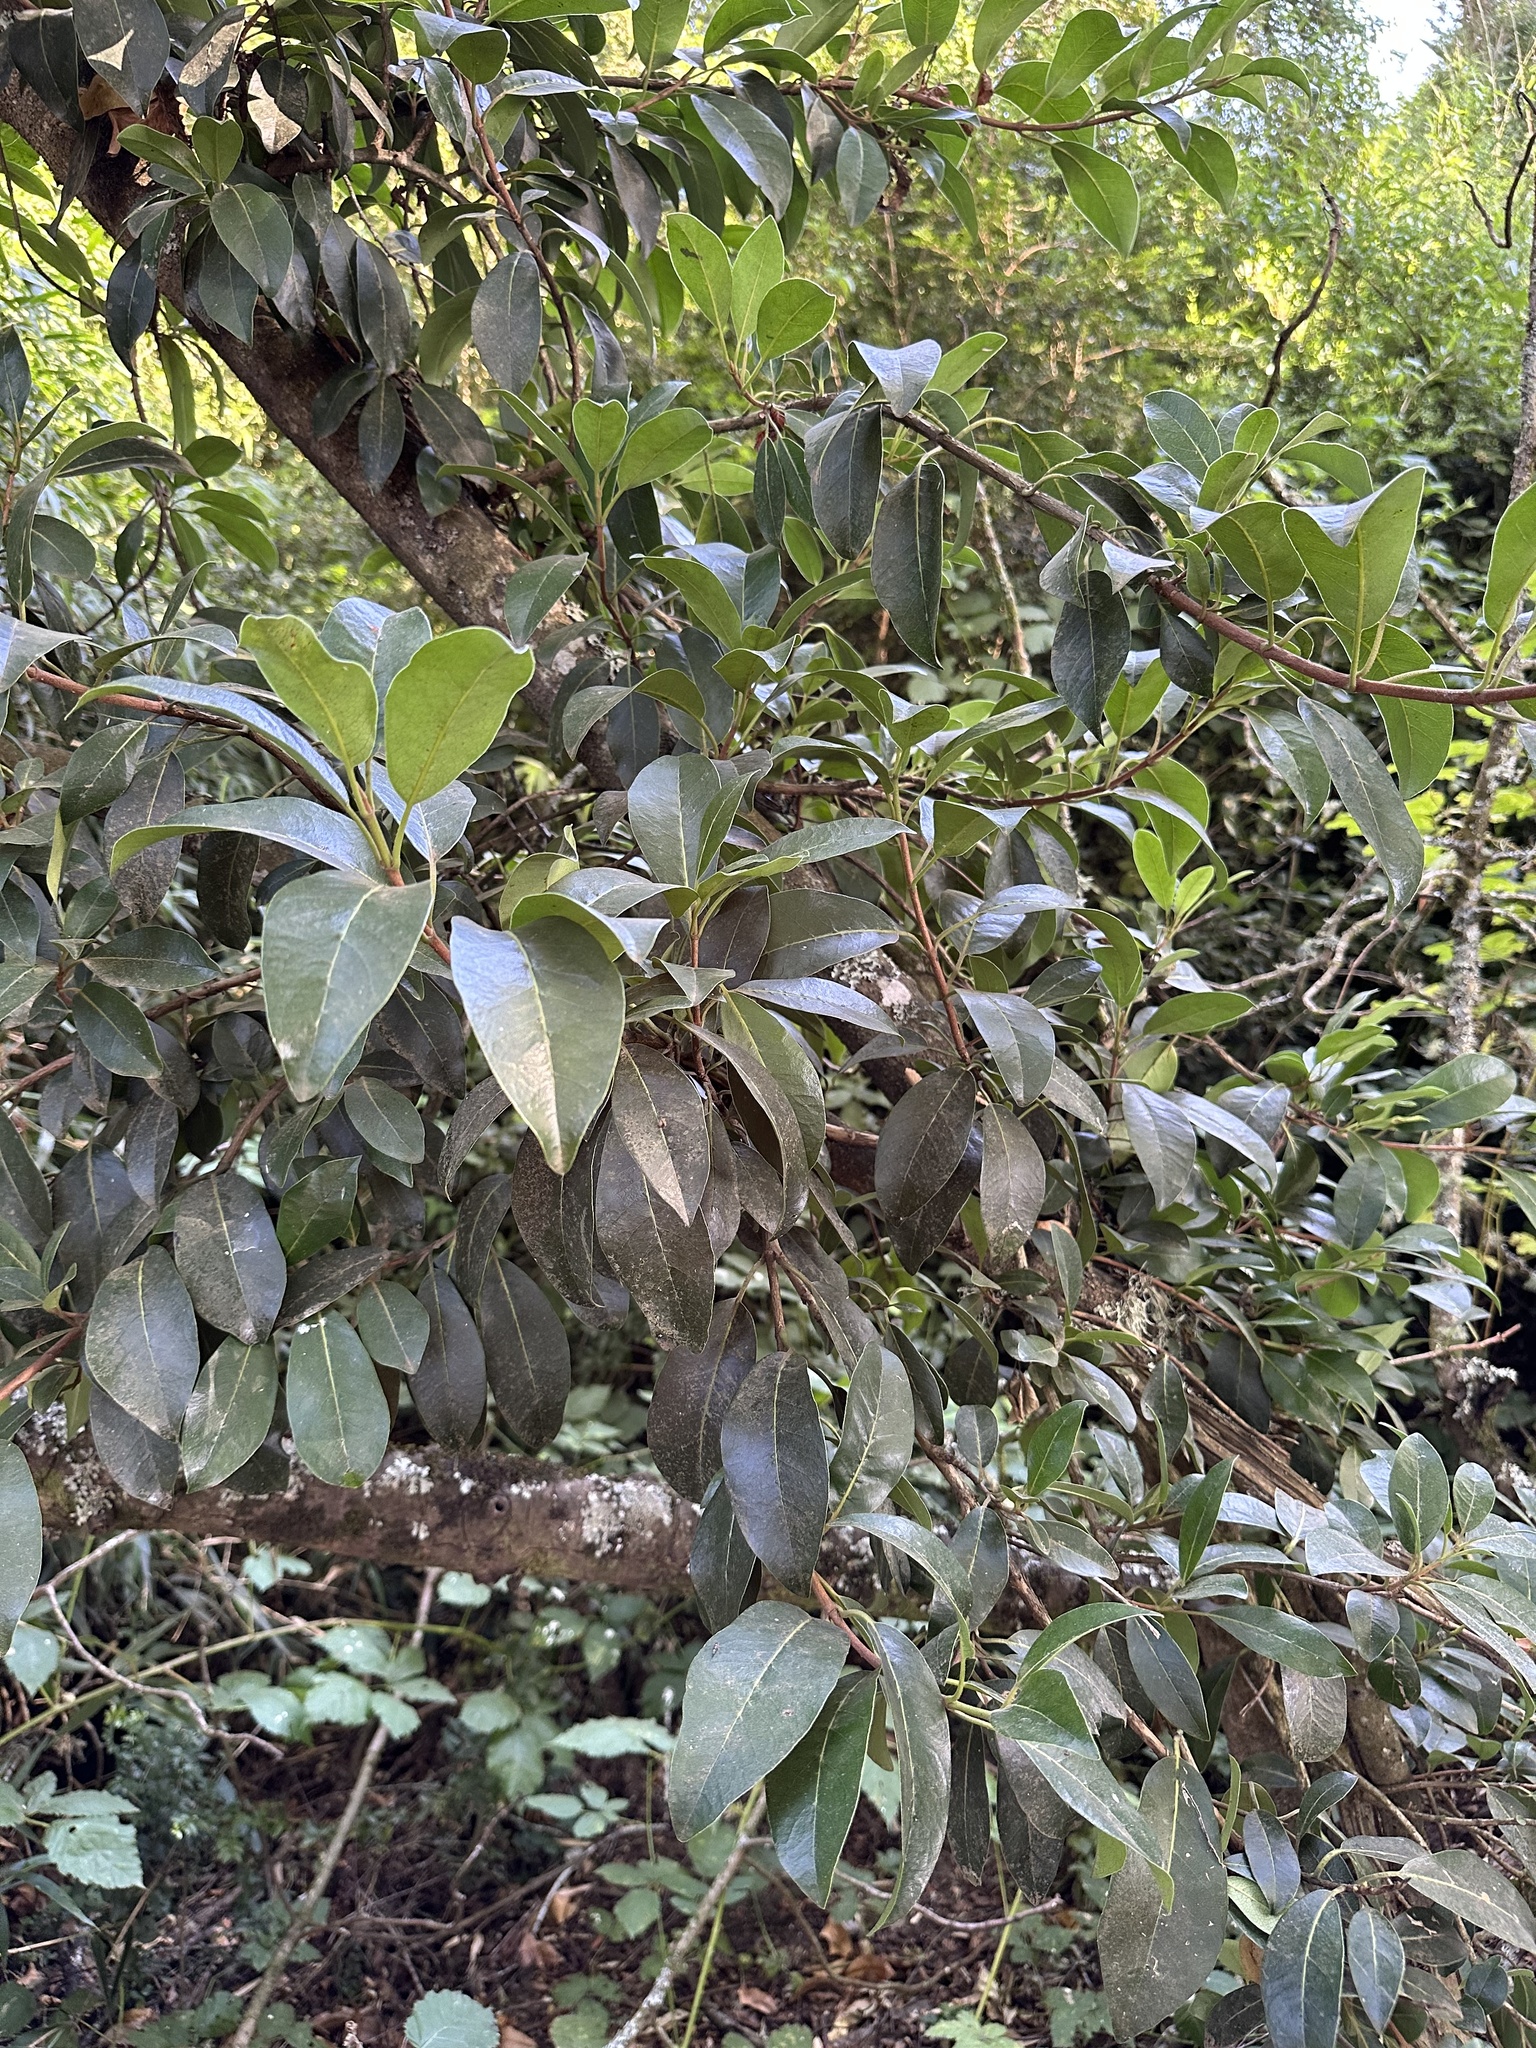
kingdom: Plantae
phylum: Tracheophyta
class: Magnoliopsida
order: Cornales
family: Hydrangeaceae
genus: Hydrangea
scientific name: Hydrangea serratifolia
